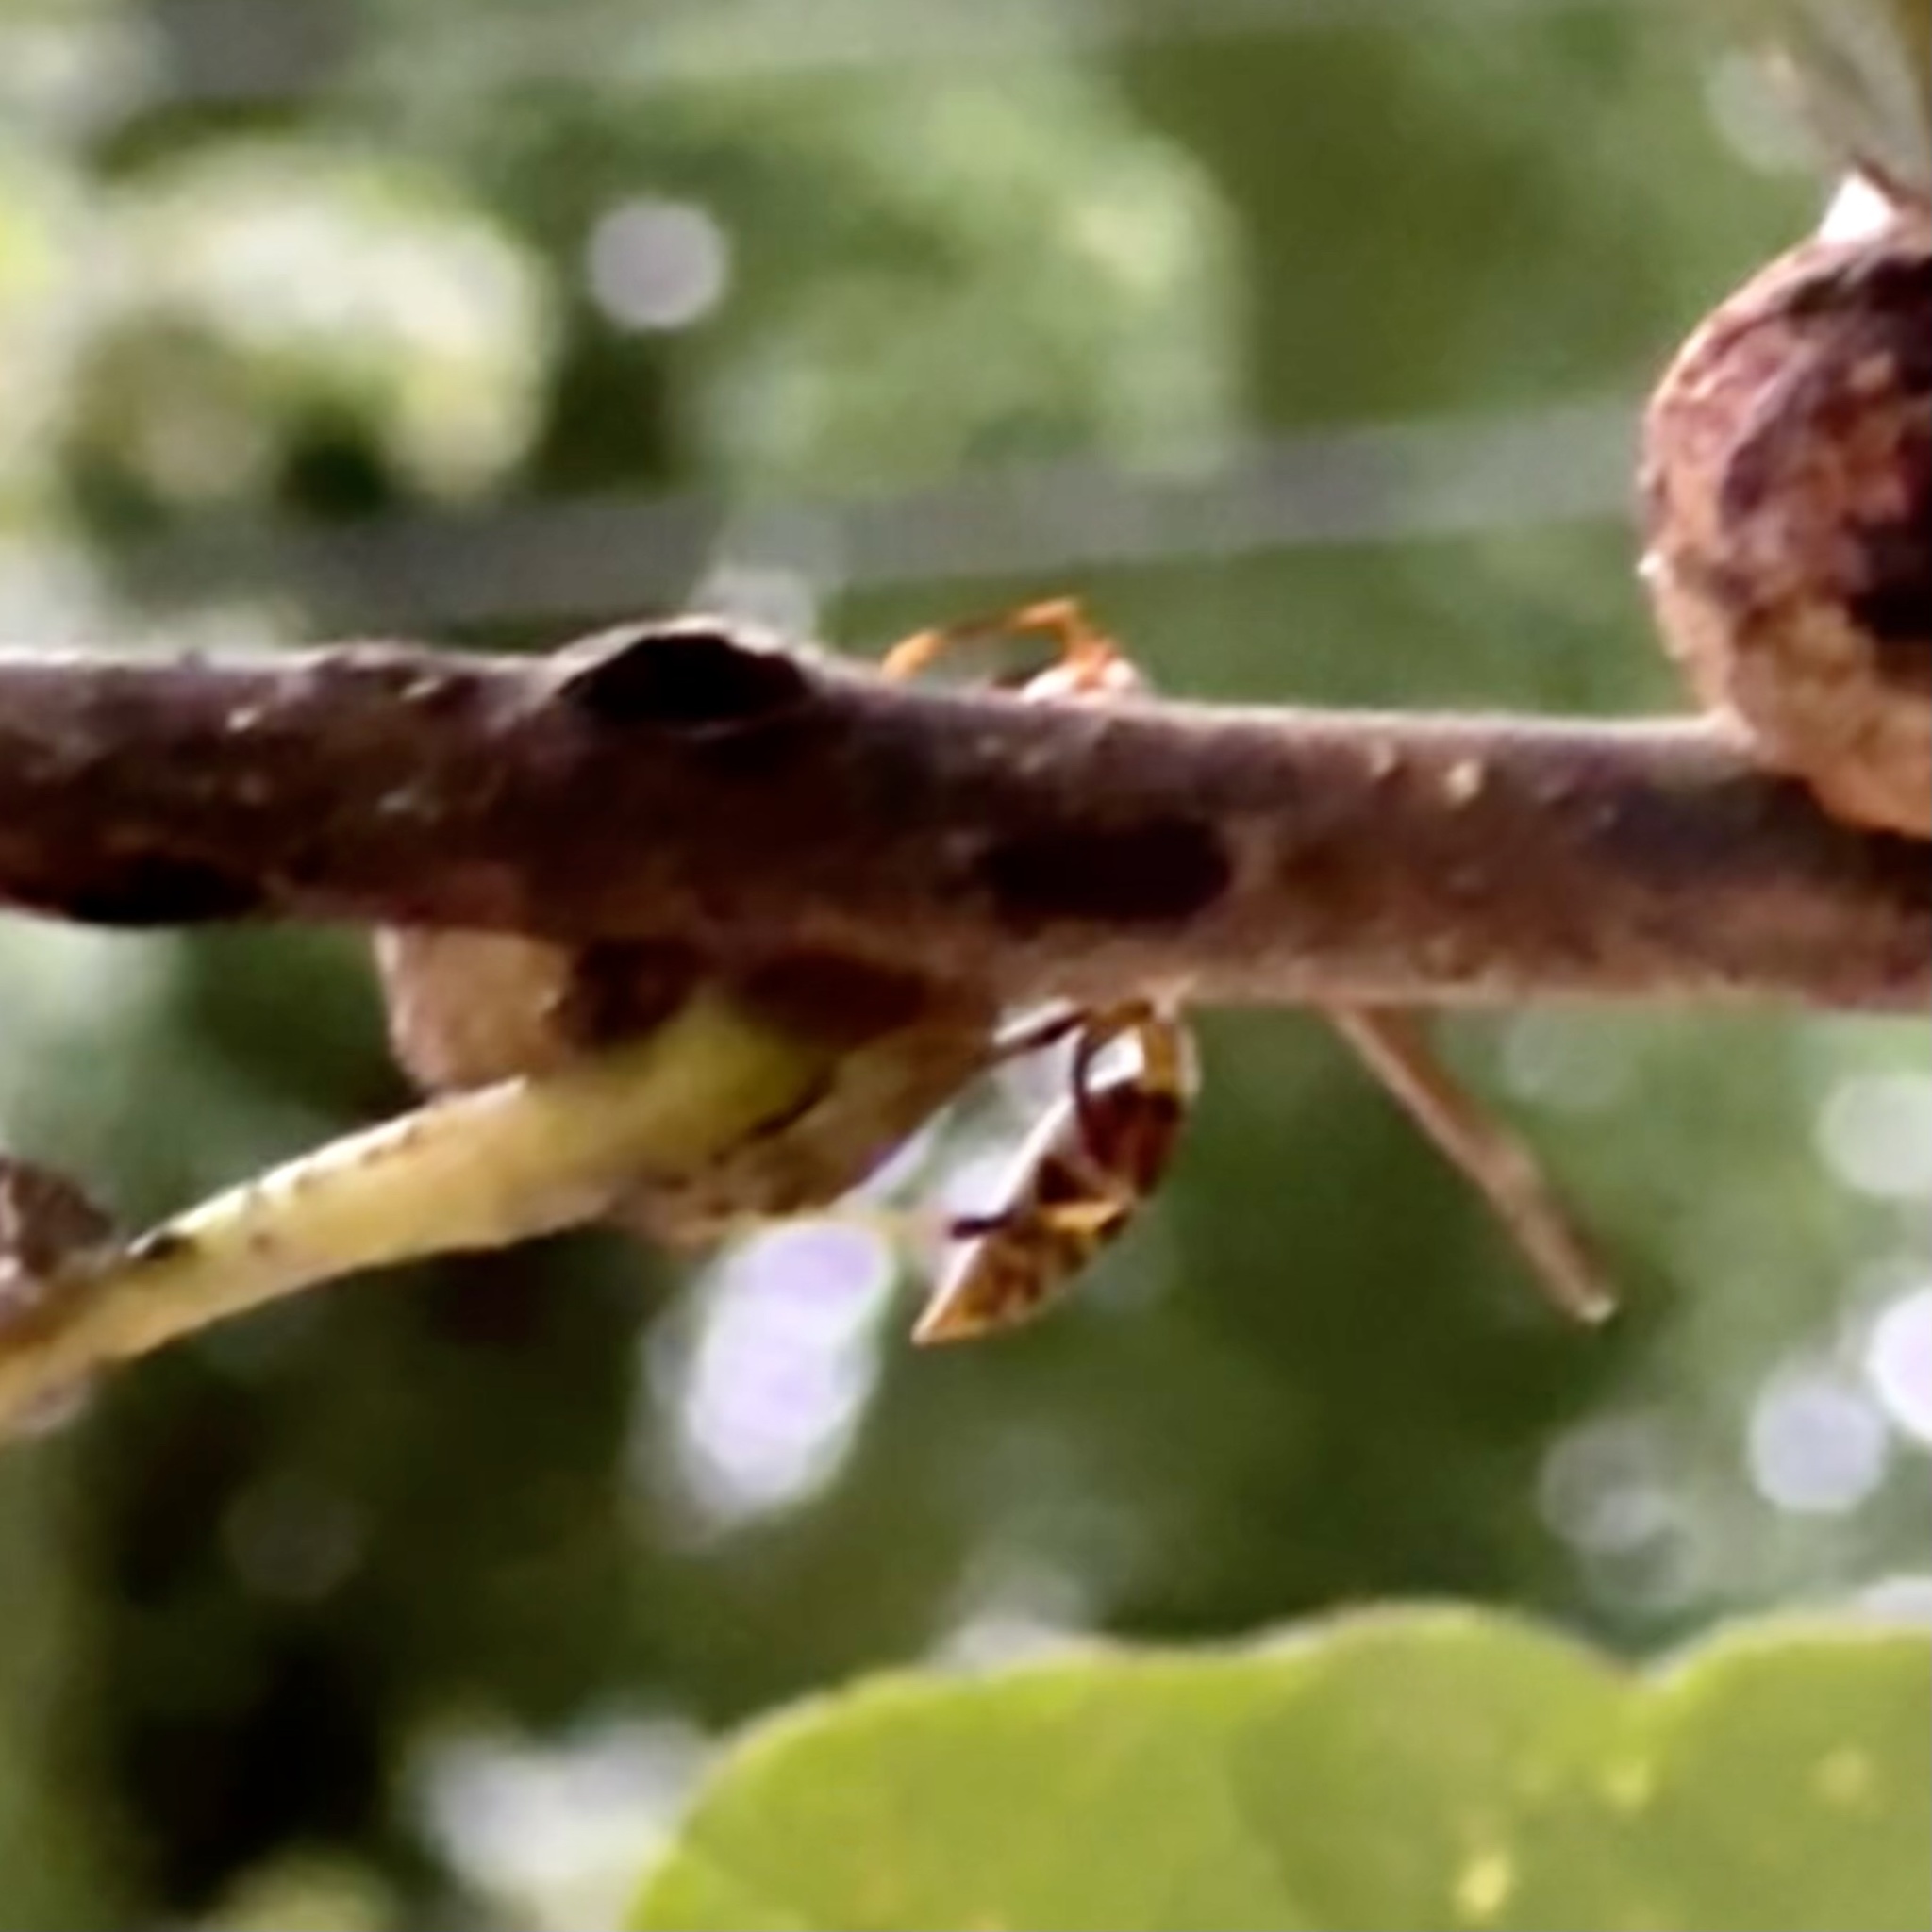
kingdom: Animalia
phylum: Arthropoda
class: Insecta
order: Hymenoptera
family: Eumenidae
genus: Polistes
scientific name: Polistes exclamans
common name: Paper wasp
